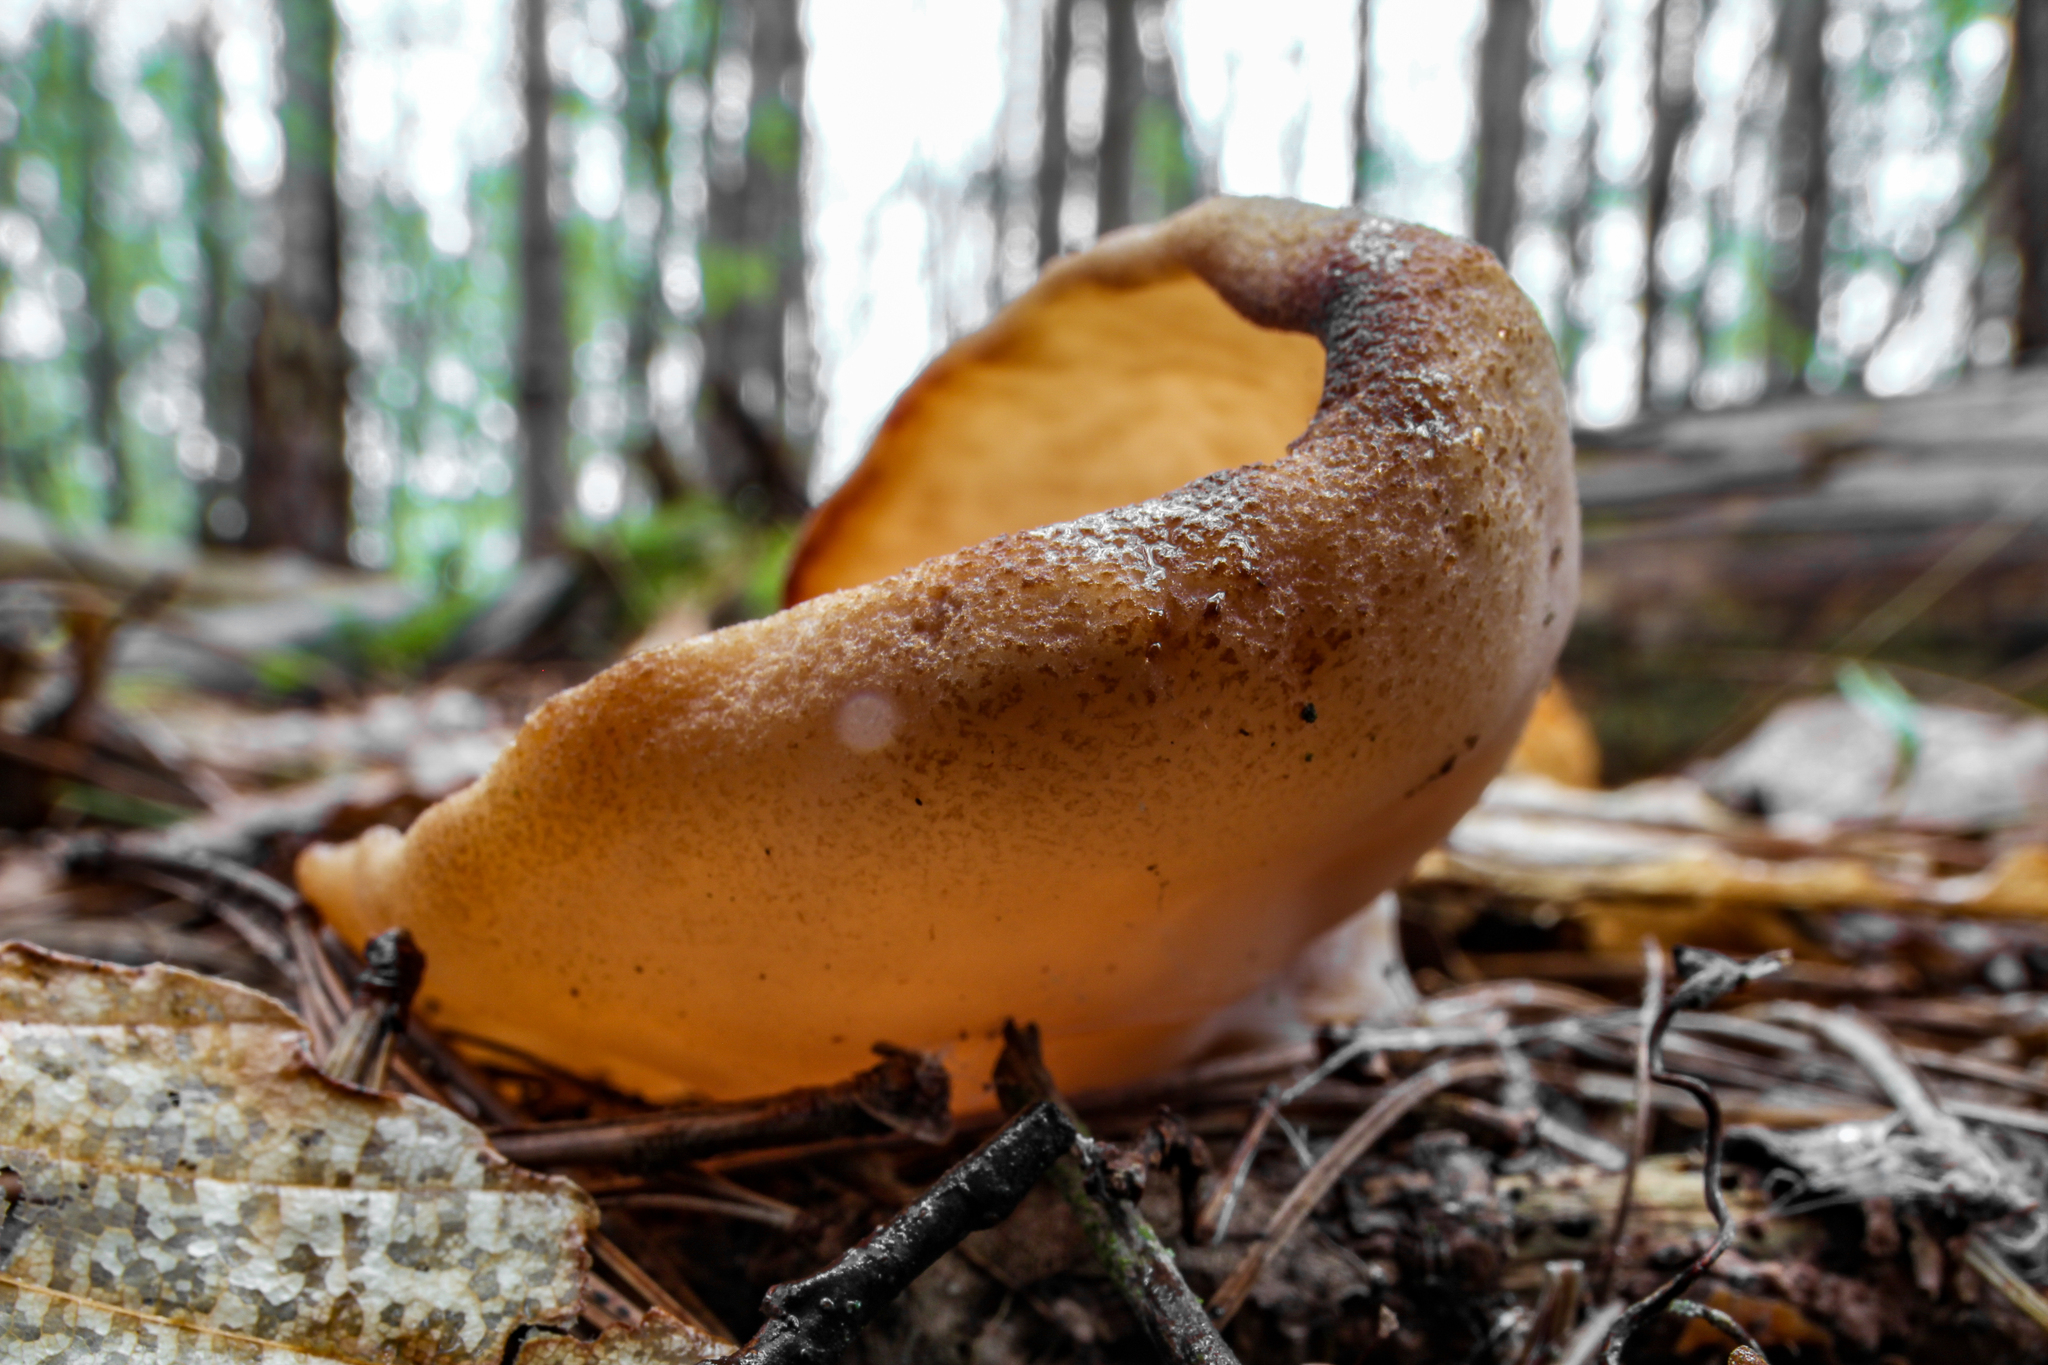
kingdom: Fungi
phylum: Ascomycota
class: Pezizomycetes
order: Pezizales
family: Discinaceae
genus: Discina
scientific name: Discina ancilis
